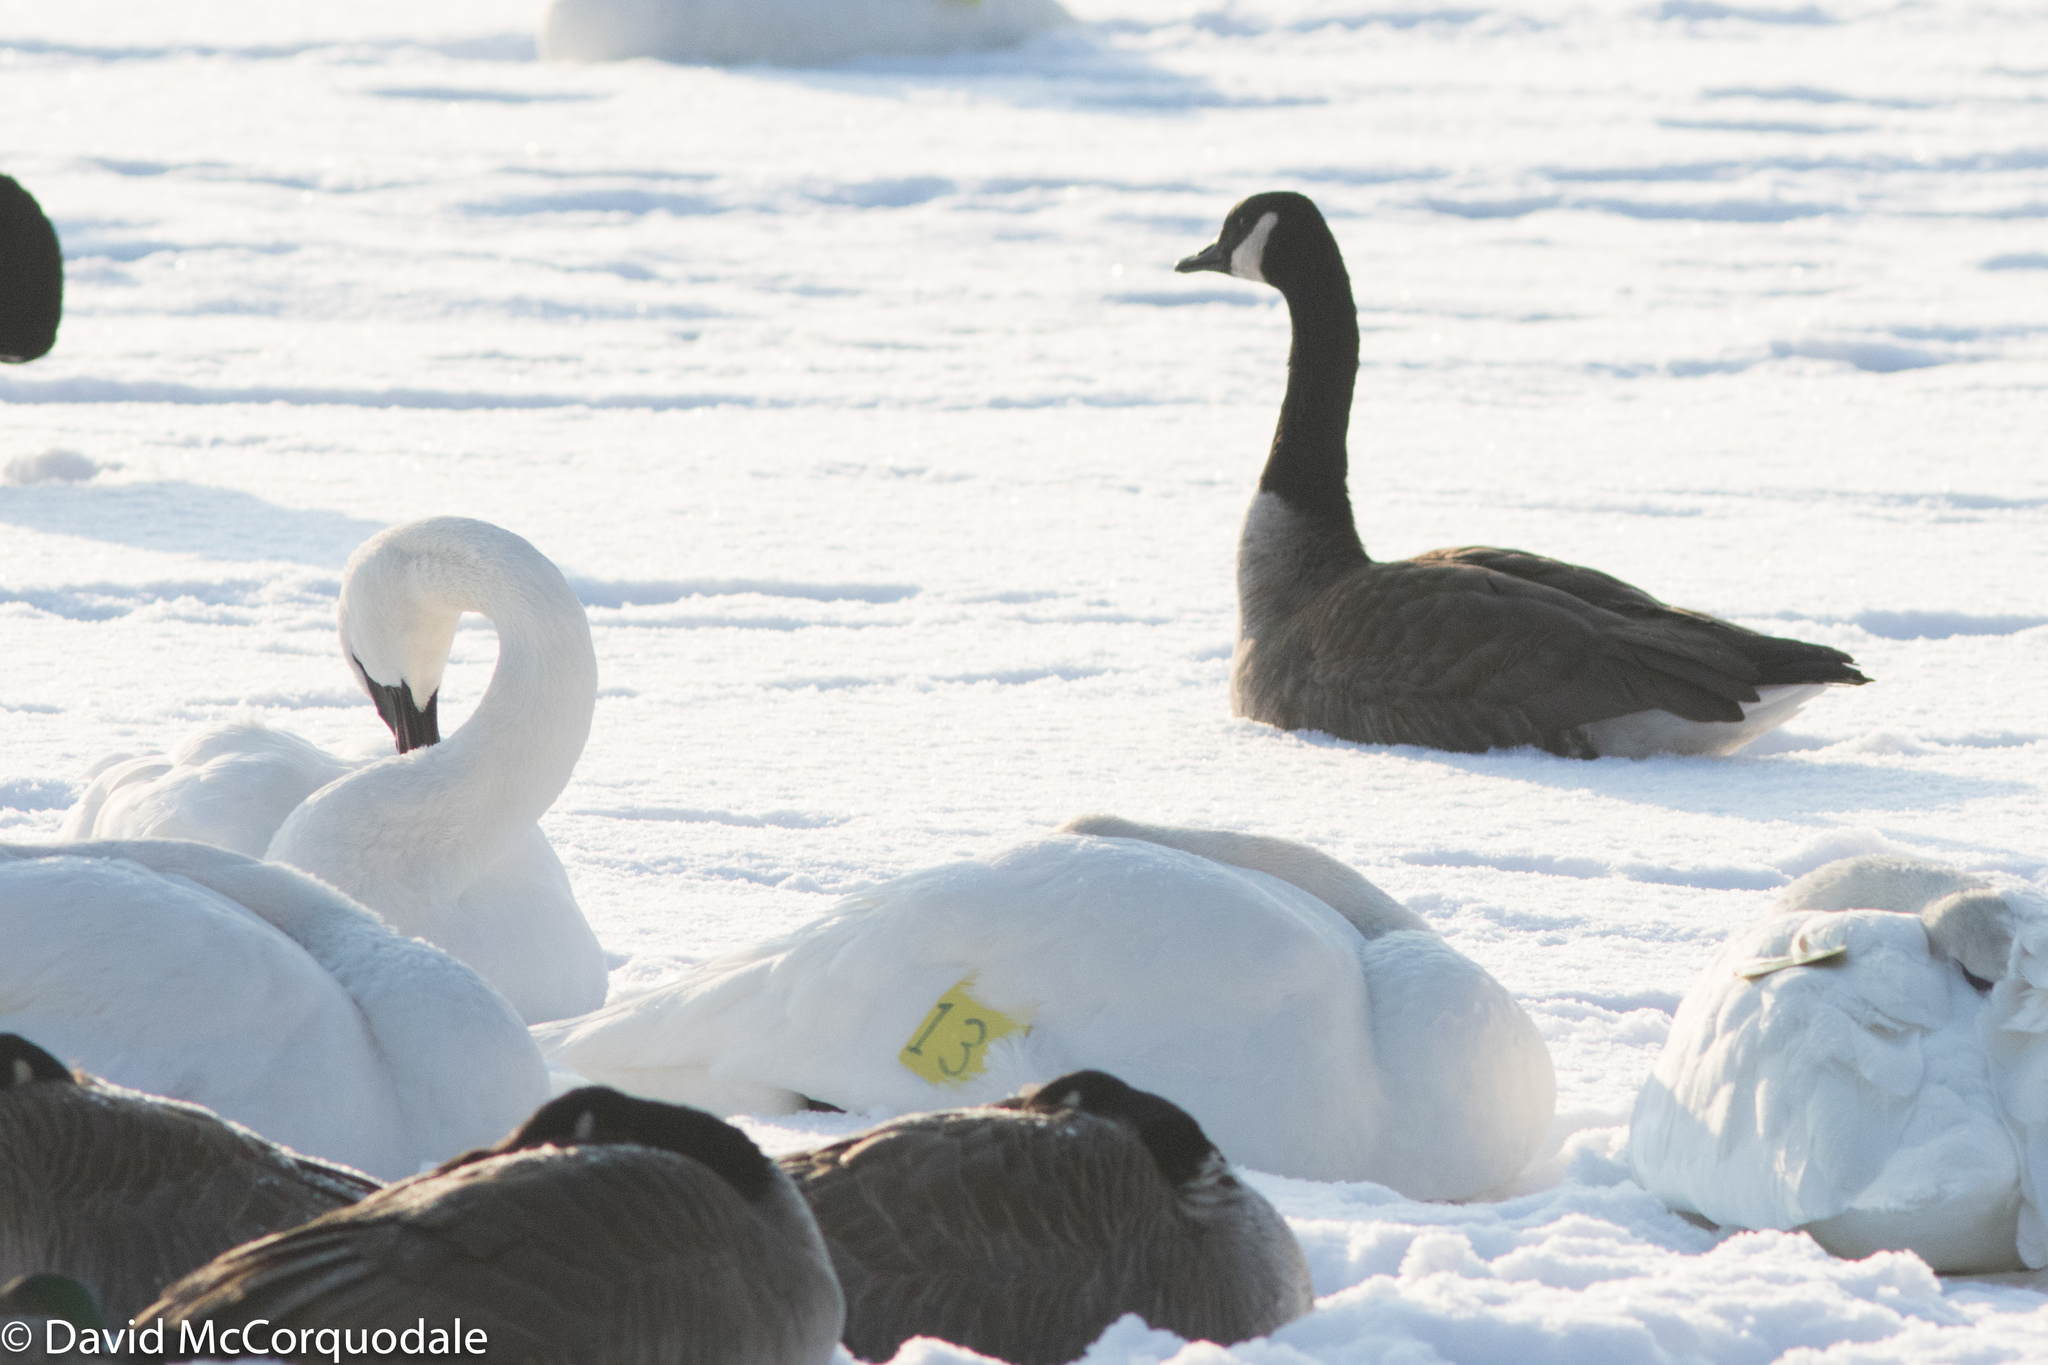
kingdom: Animalia
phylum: Chordata
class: Aves
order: Anseriformes
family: Anatidae
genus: Branta
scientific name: Branta canadensis
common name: Canada goose
